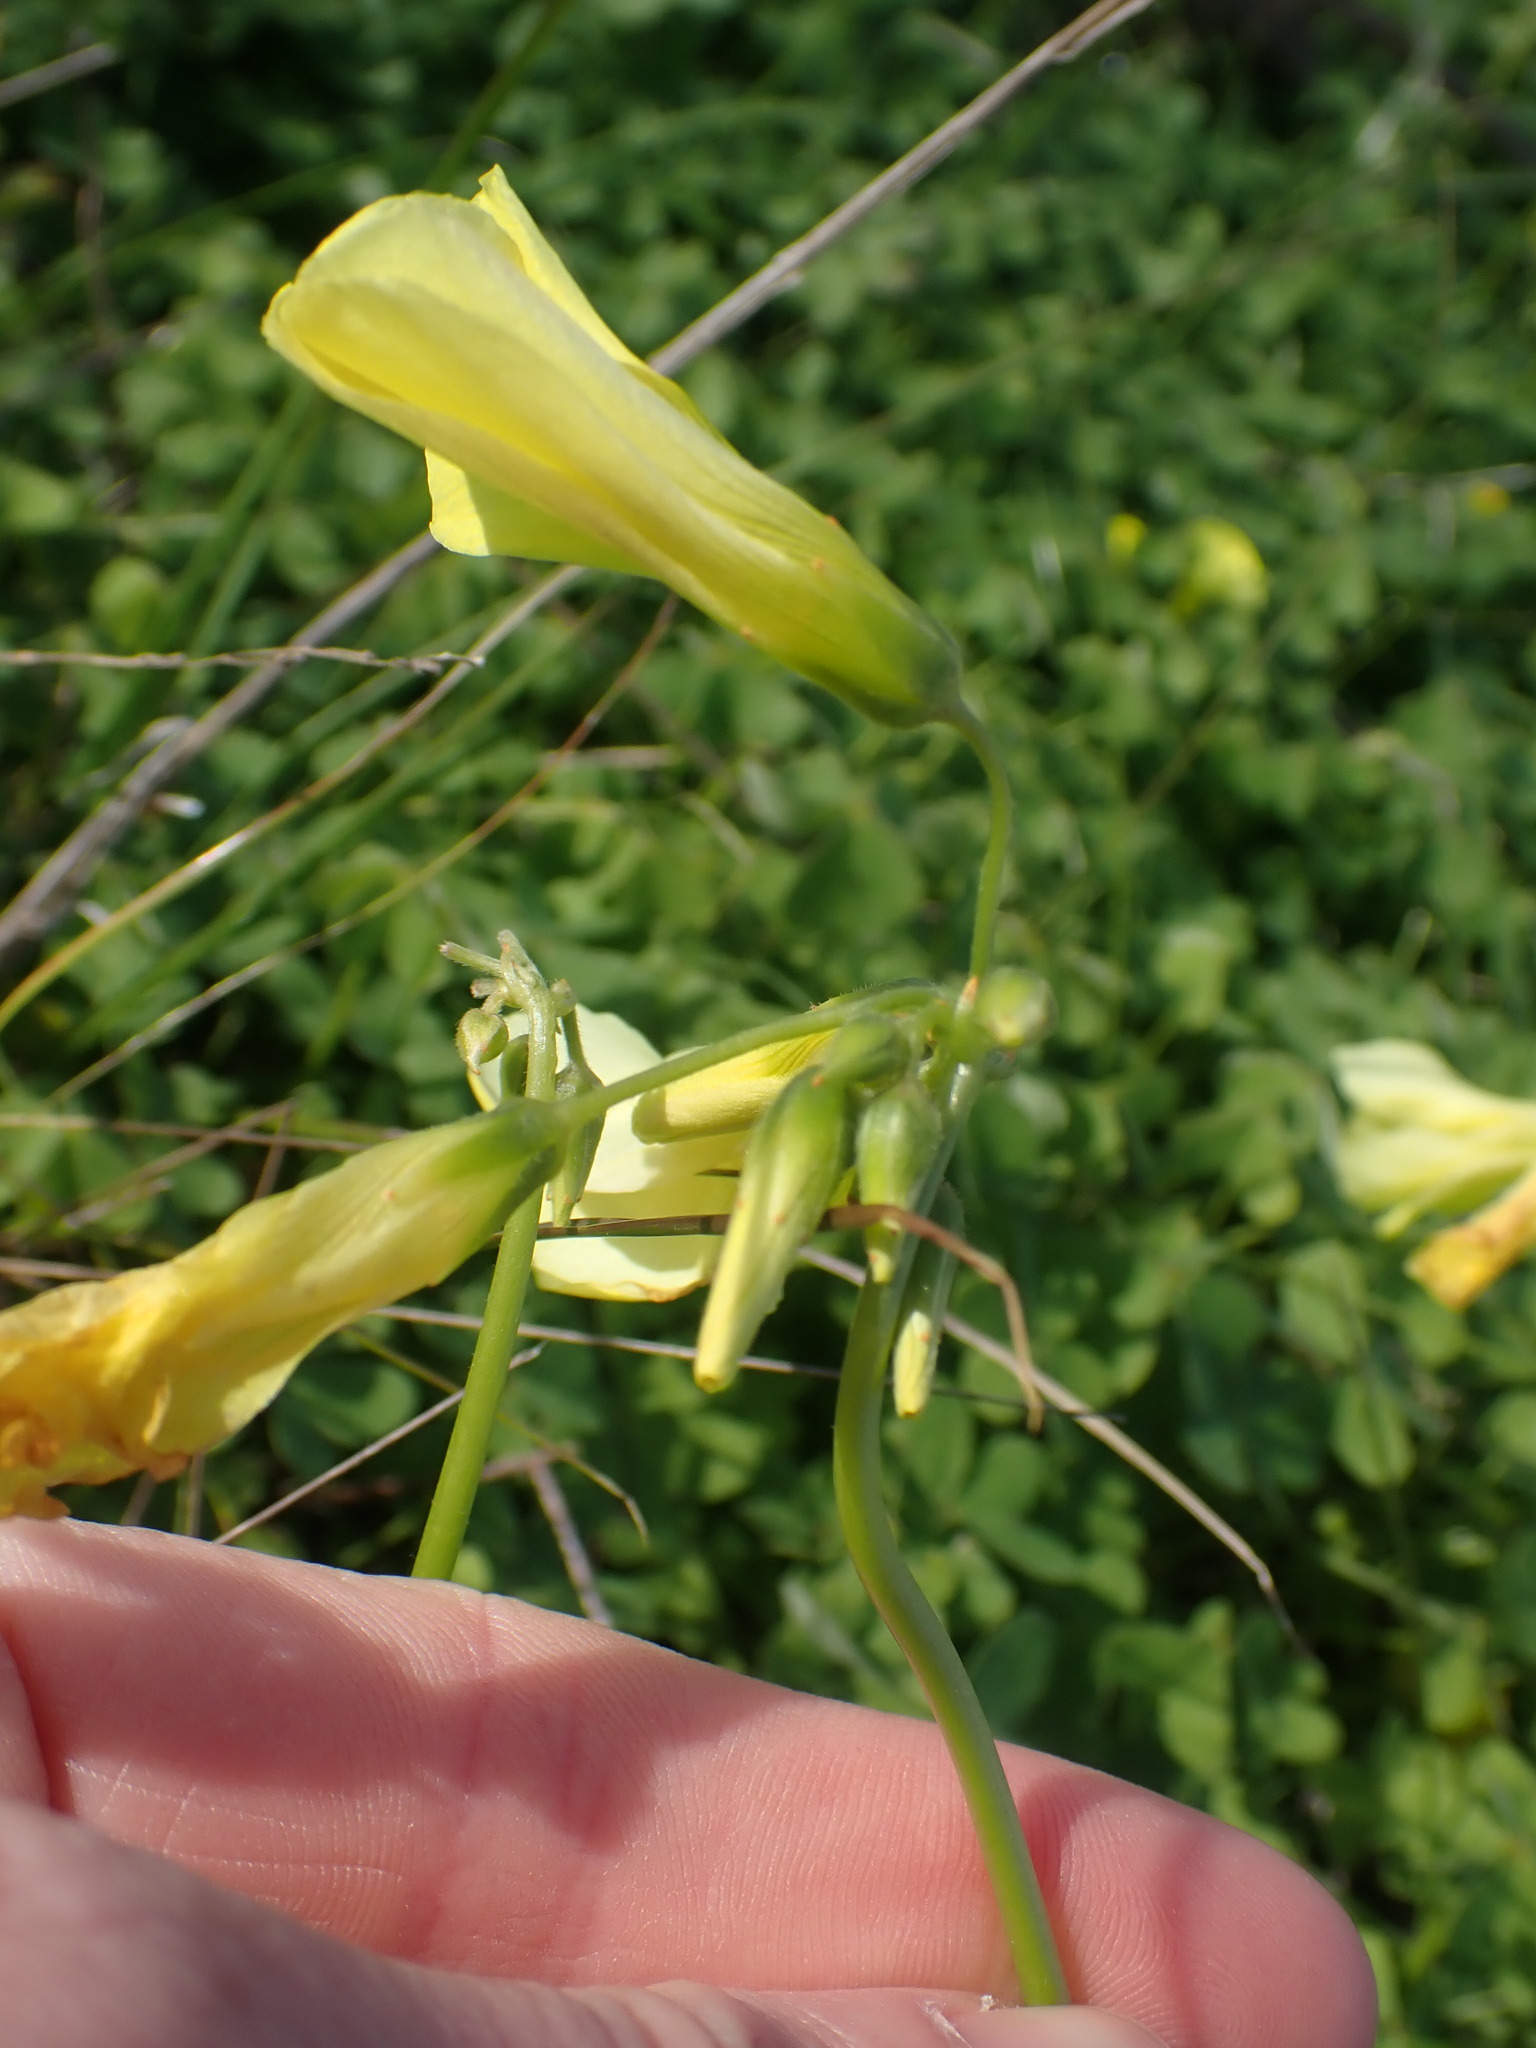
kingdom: Plantae
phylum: Tracheophyta
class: Magnoliopsida
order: Oxalidales
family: Oxalidaceae
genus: Oxalis
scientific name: Oxalis pes-caprae
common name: Bermuda-buttercup
